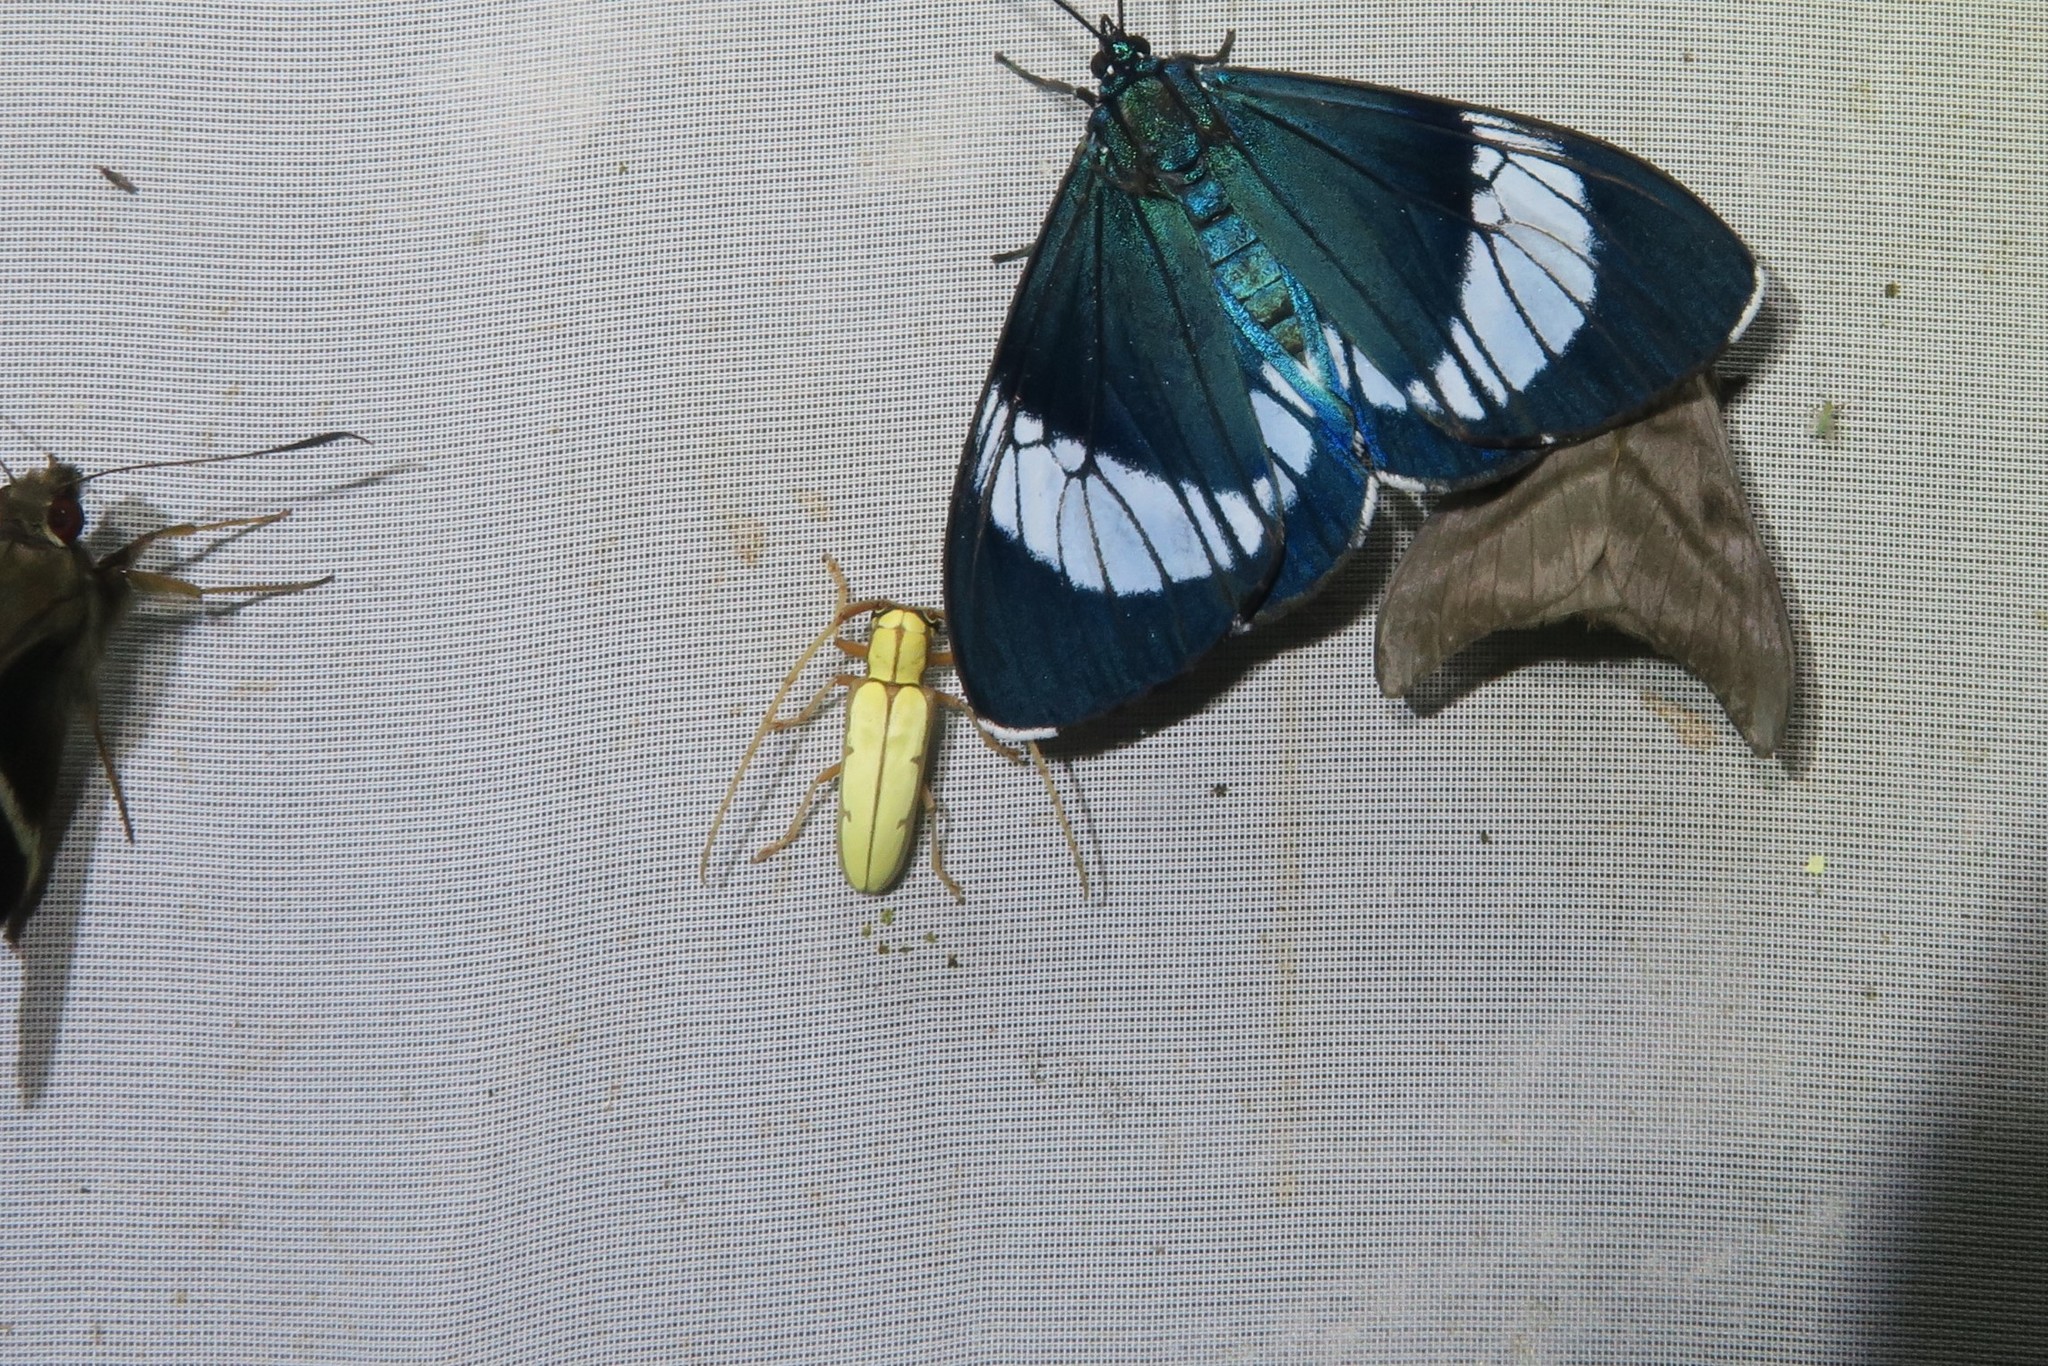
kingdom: Animalia
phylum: Arthropoda
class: Insecta
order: Coleoptera
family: Cerambycidae
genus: Phoebemima
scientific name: Phoebemima theaphia
